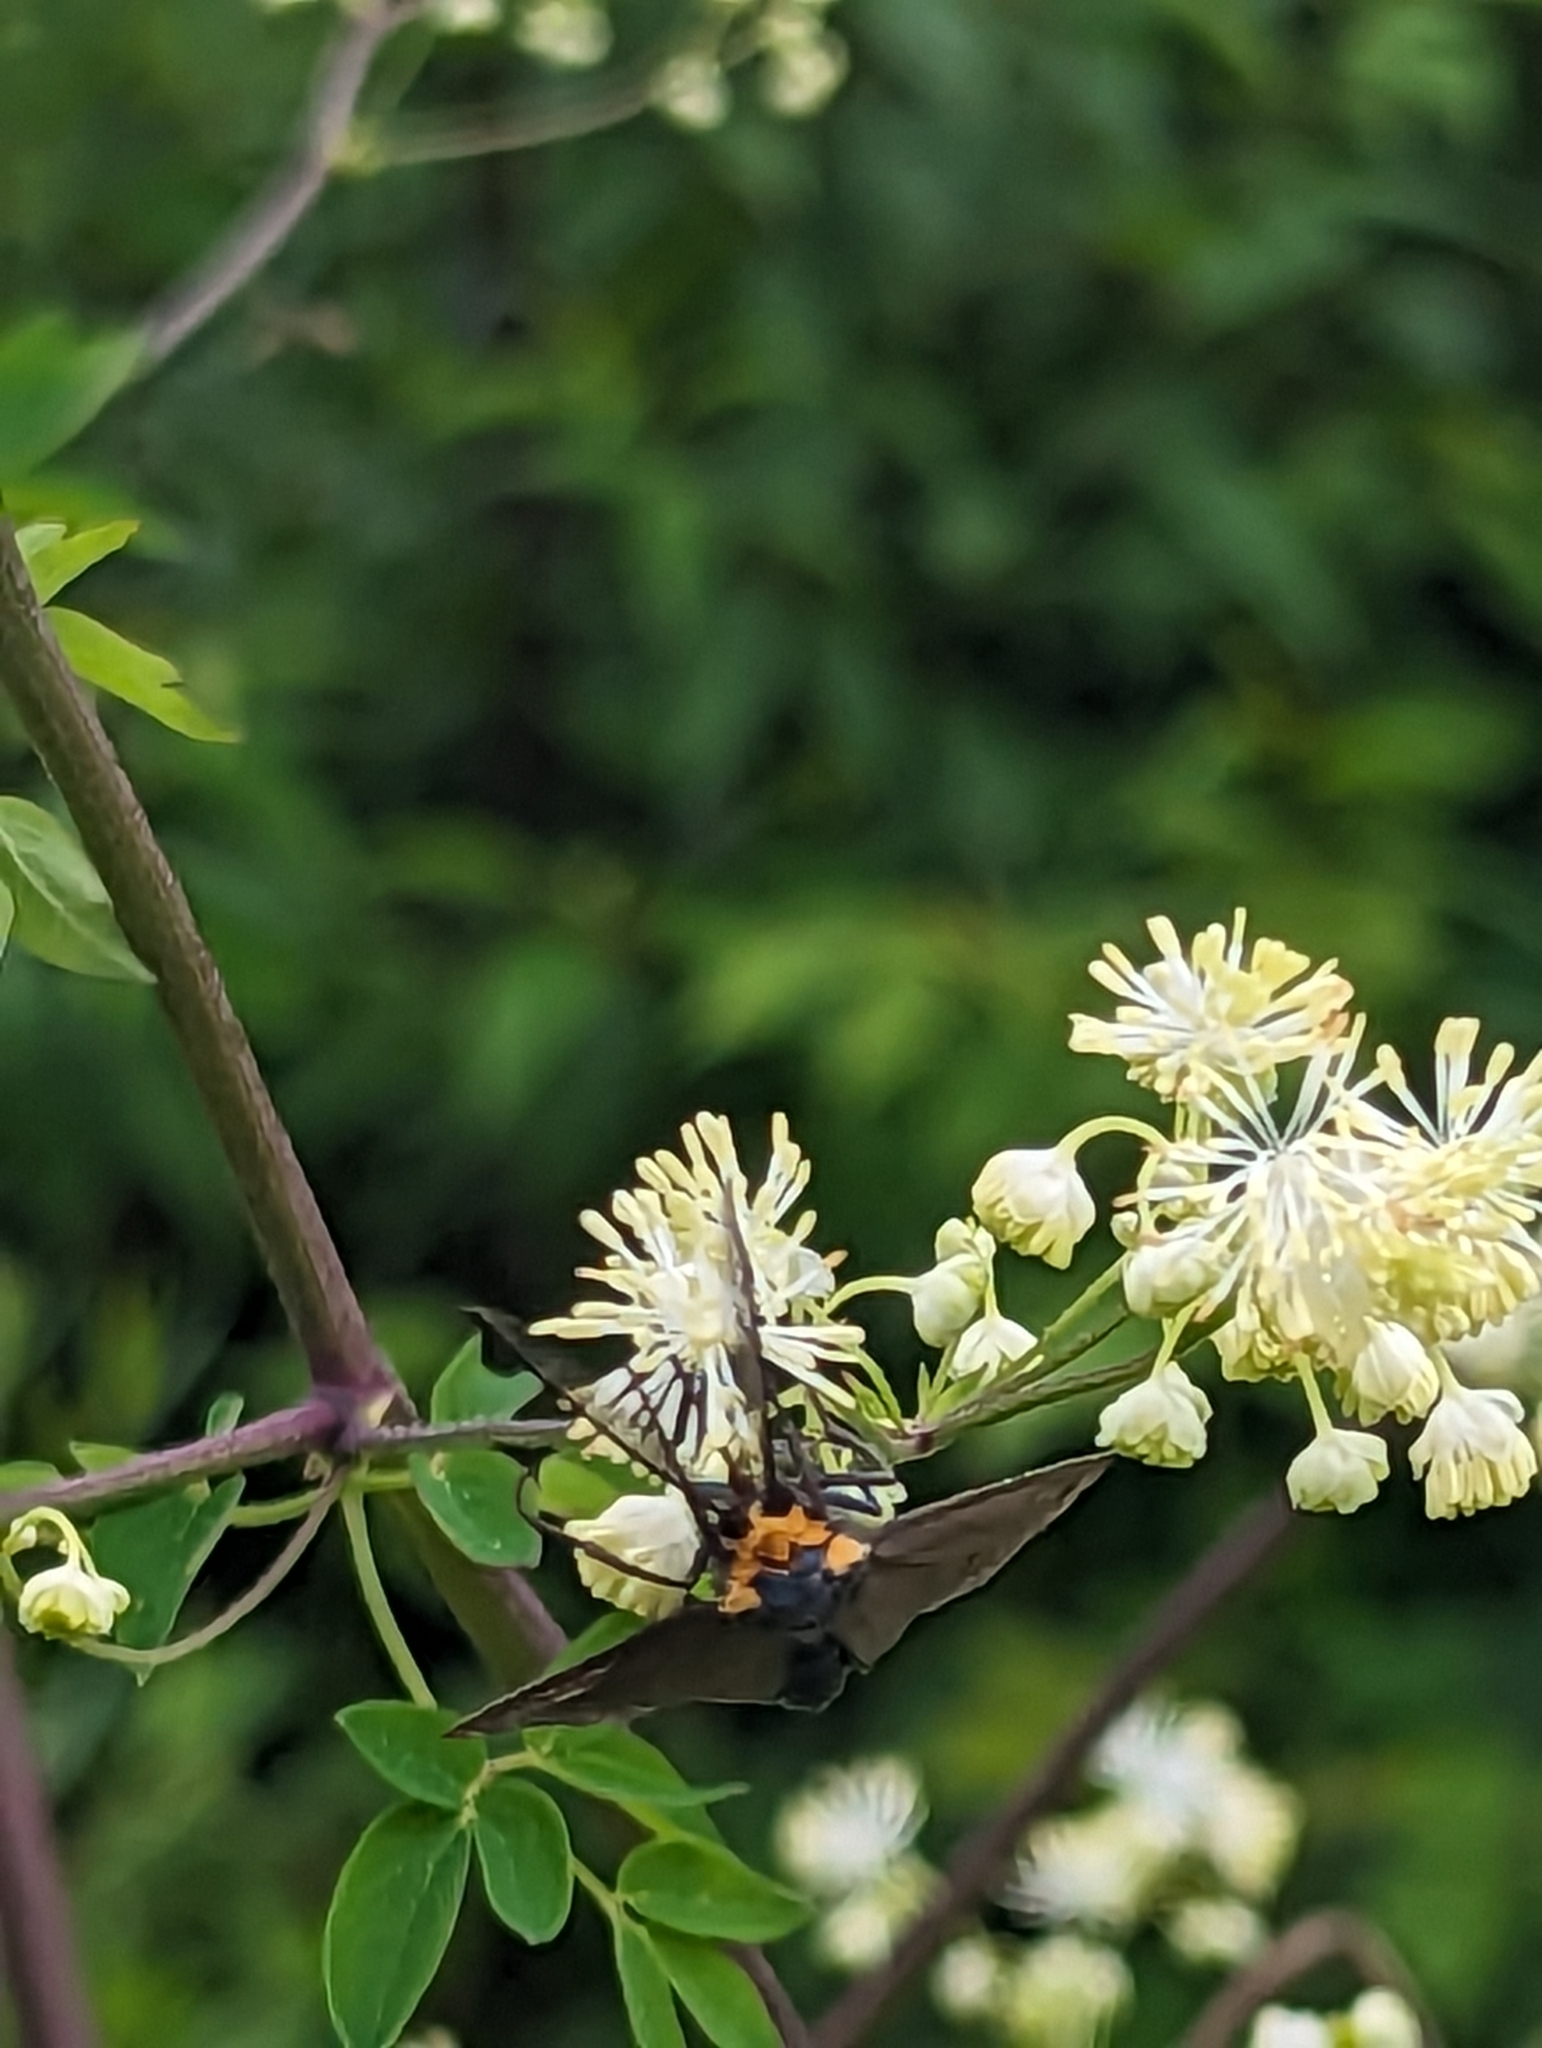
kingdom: Animalia
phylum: Arthropoda
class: Insecta
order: Lepidoptera
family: Erebidae
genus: Ctenucha
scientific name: Ctenucha virginica
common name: Virginia ctenucha moth
